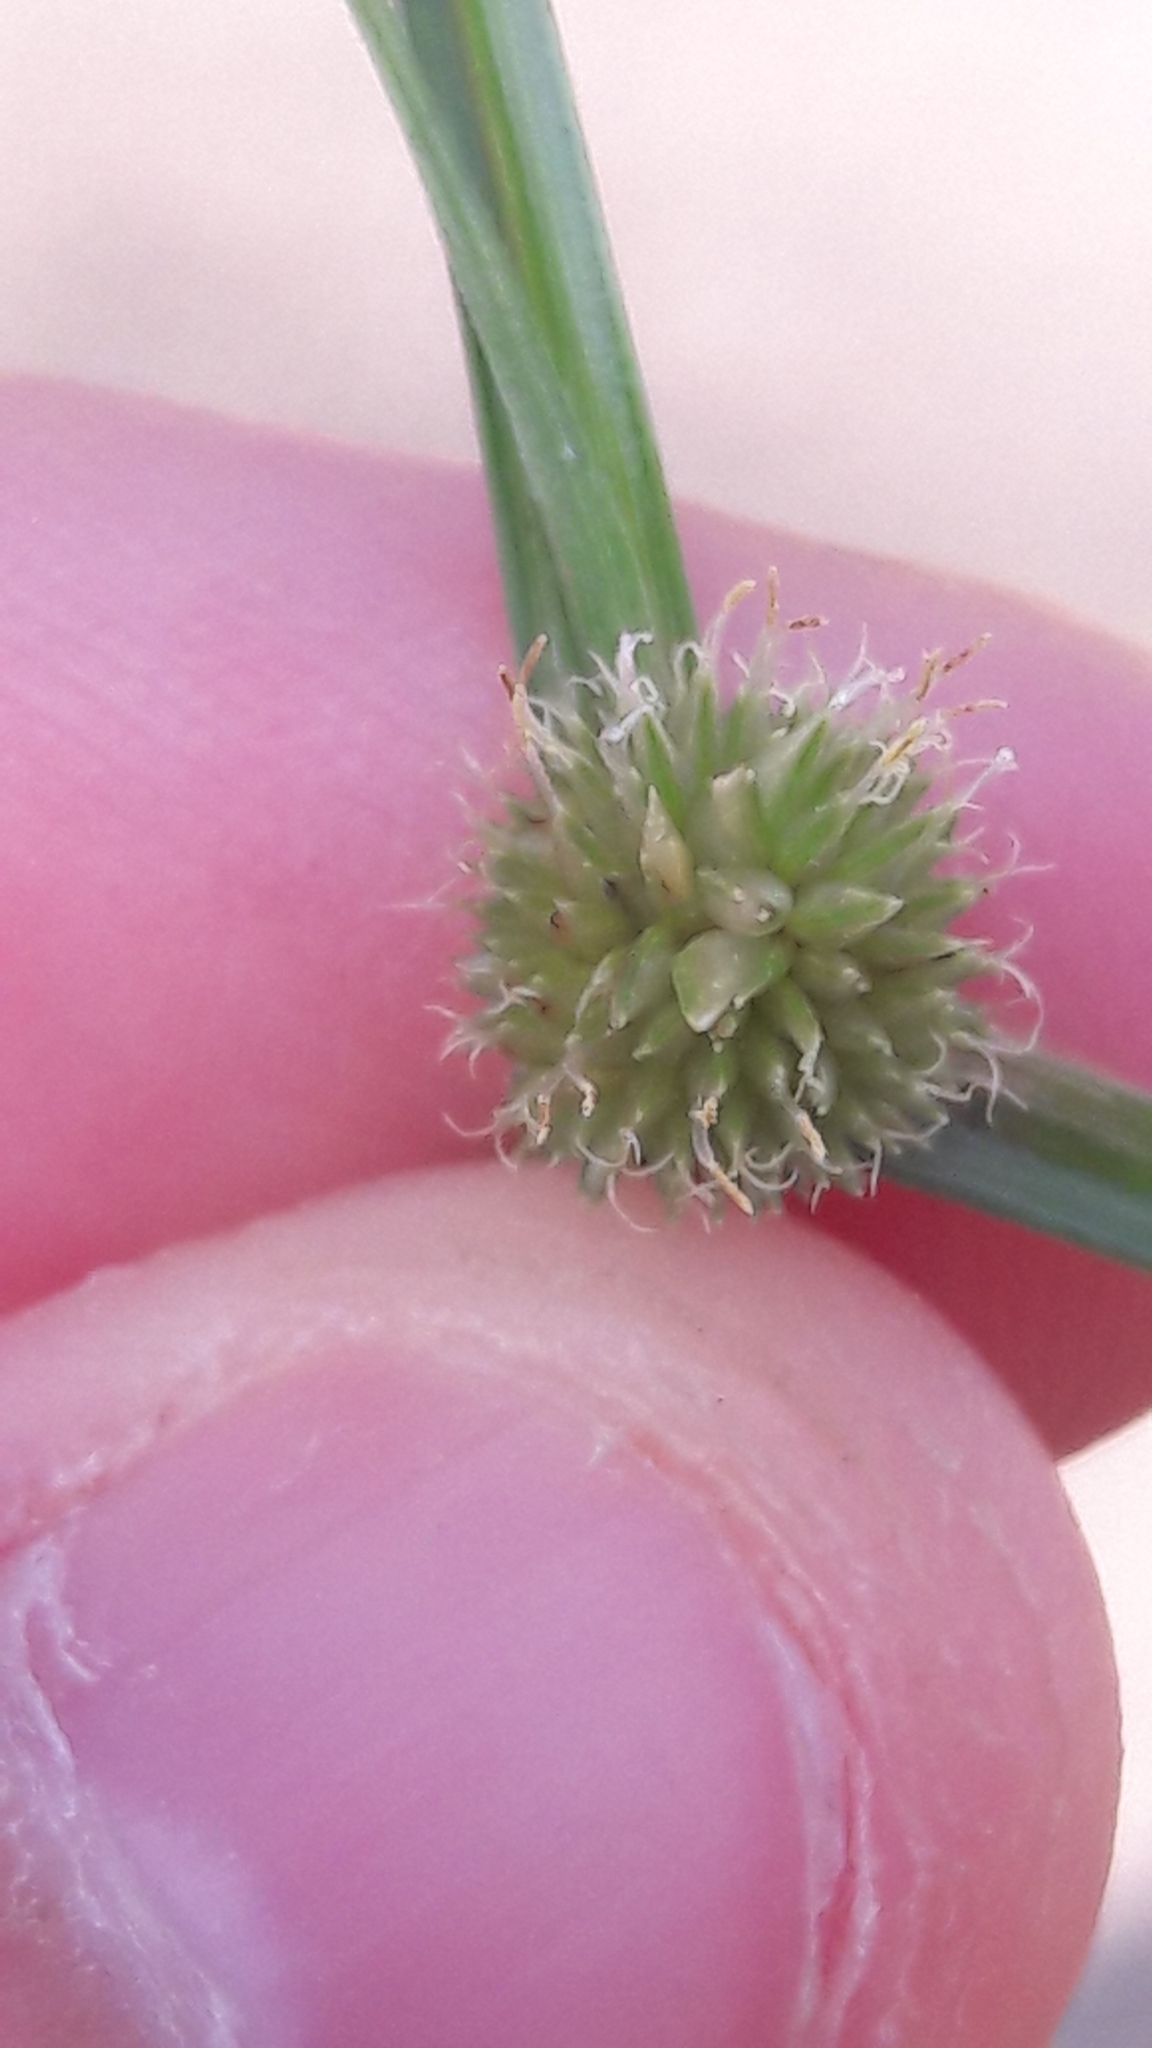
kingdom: Plantae
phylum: Tracheophyta
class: Liliopsida
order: Poales
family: Cyperaceae
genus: Cyperus
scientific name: Cyperus brevifolioides
